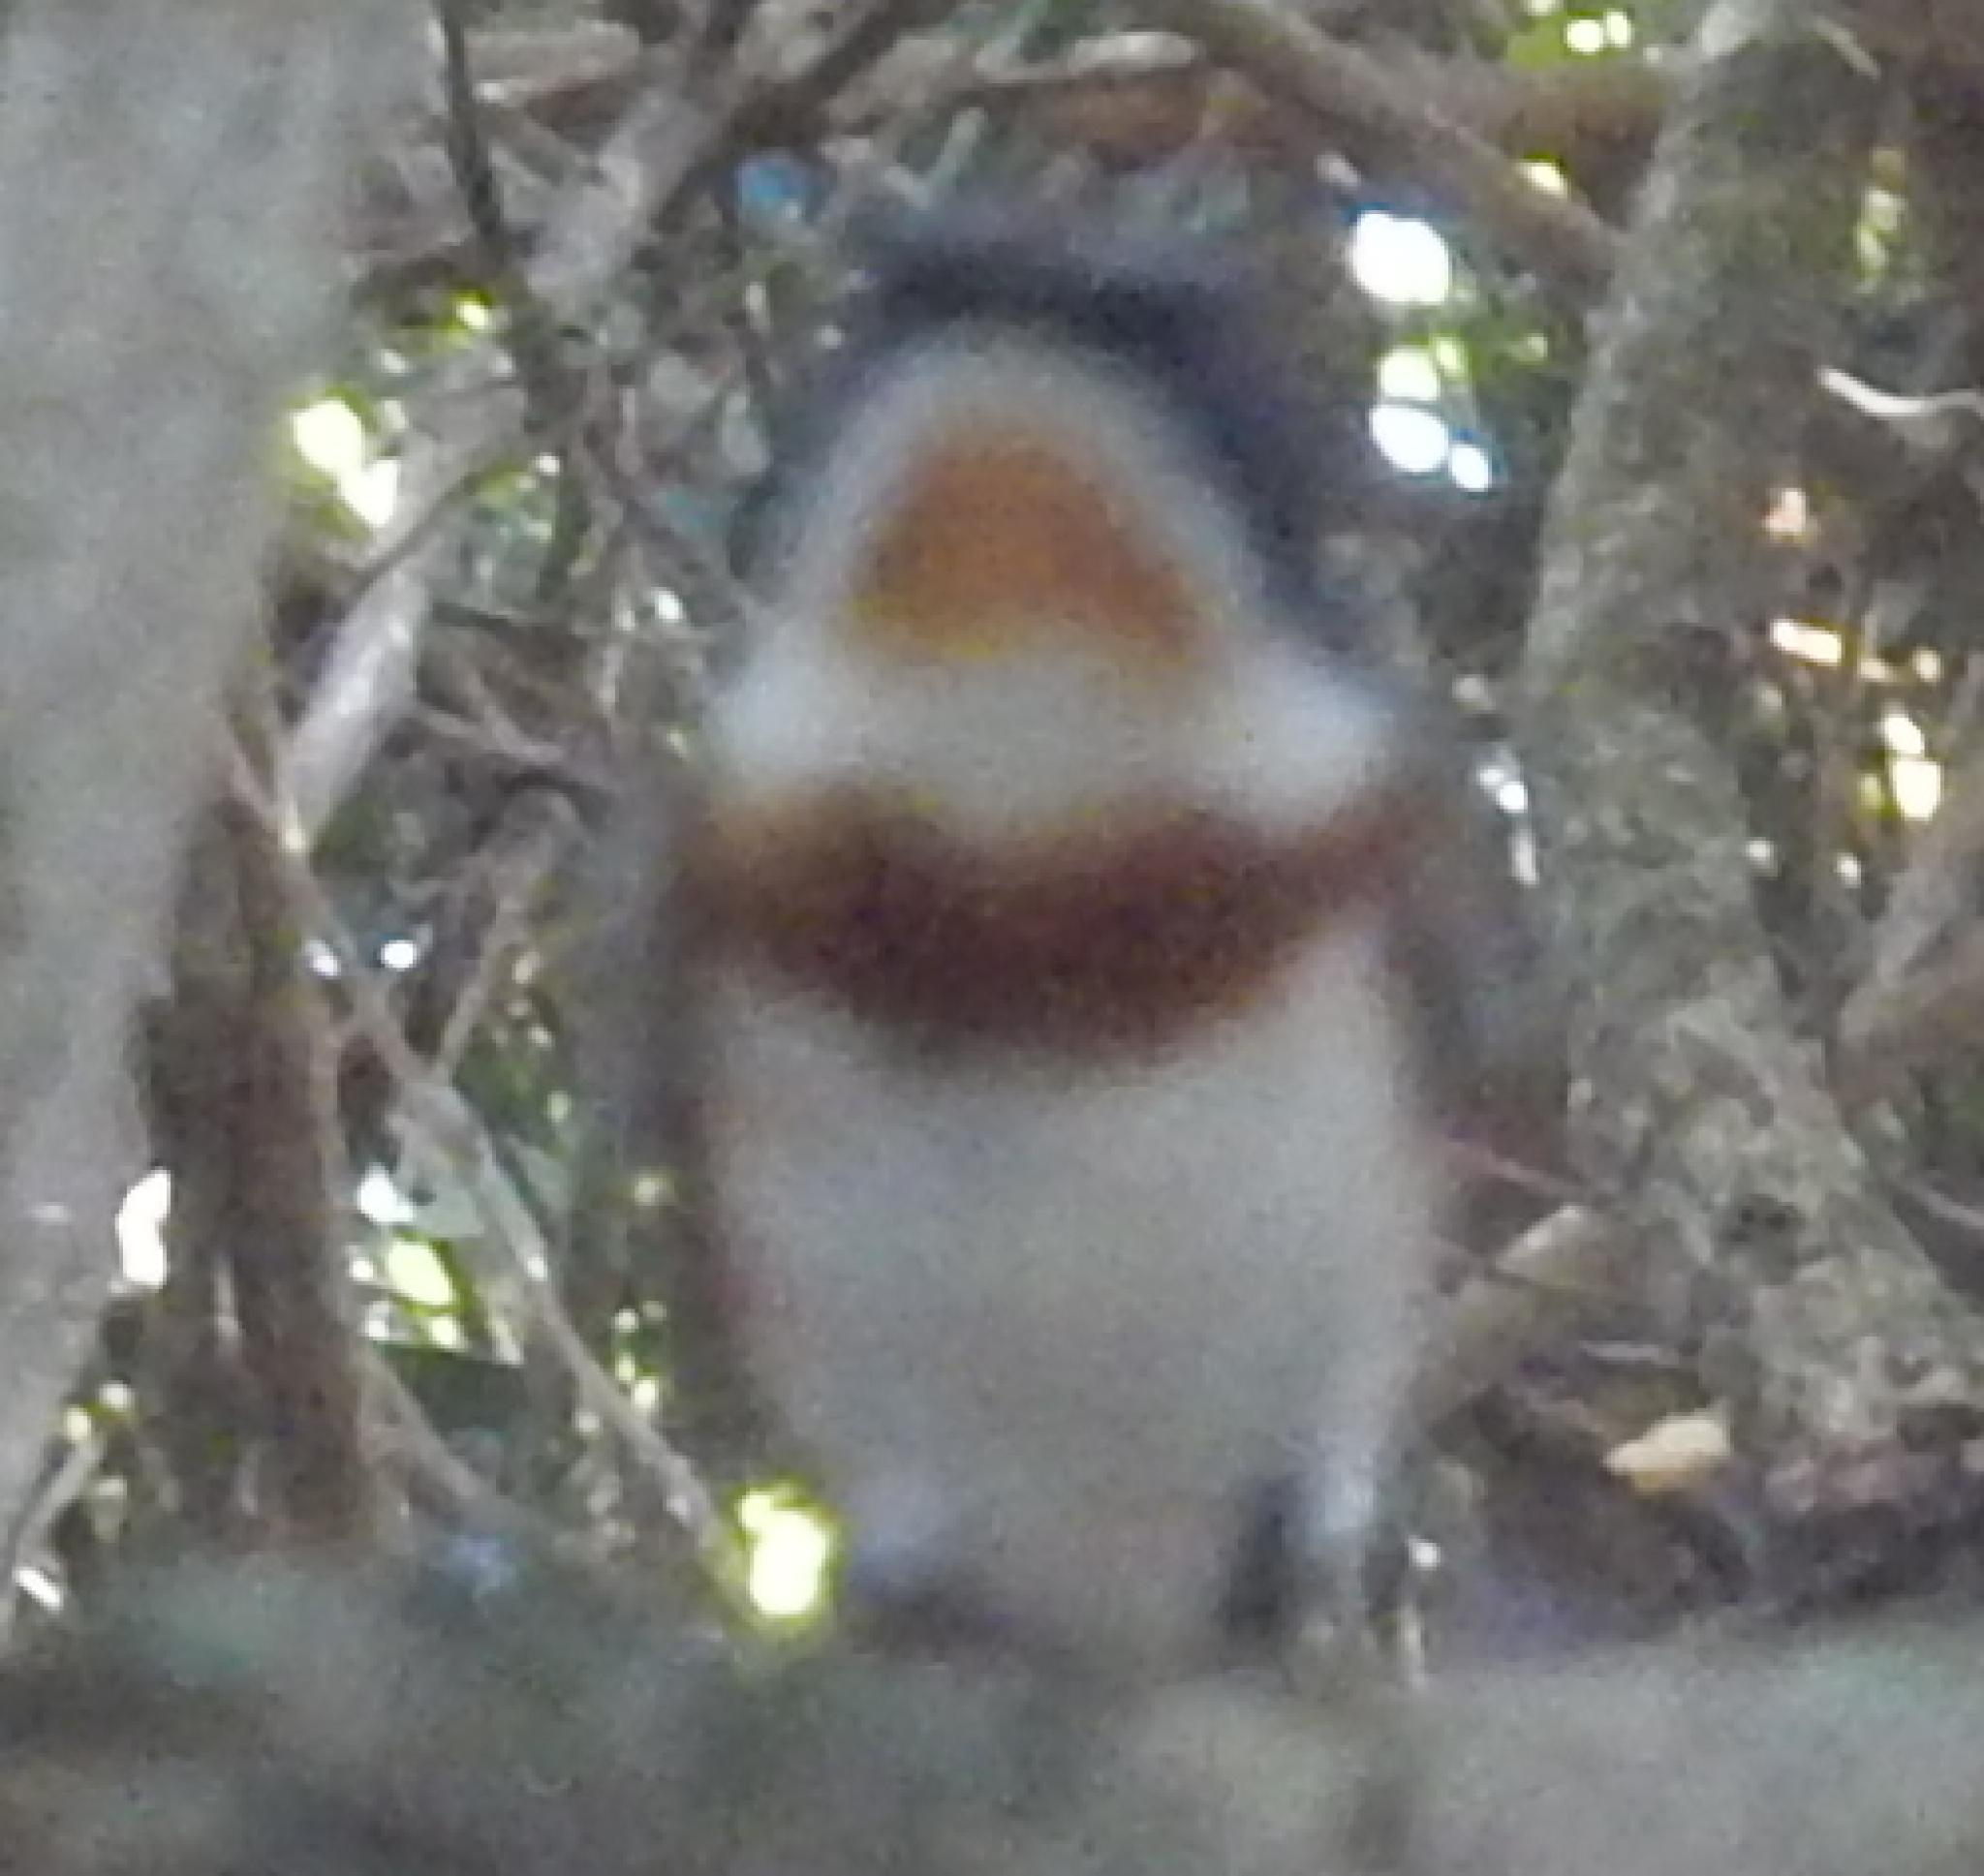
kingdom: Animalia
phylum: Chordata
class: Aves
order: Passeriformes
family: Platysteiridae
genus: Batis
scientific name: Batis capensis
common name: Cape batis
